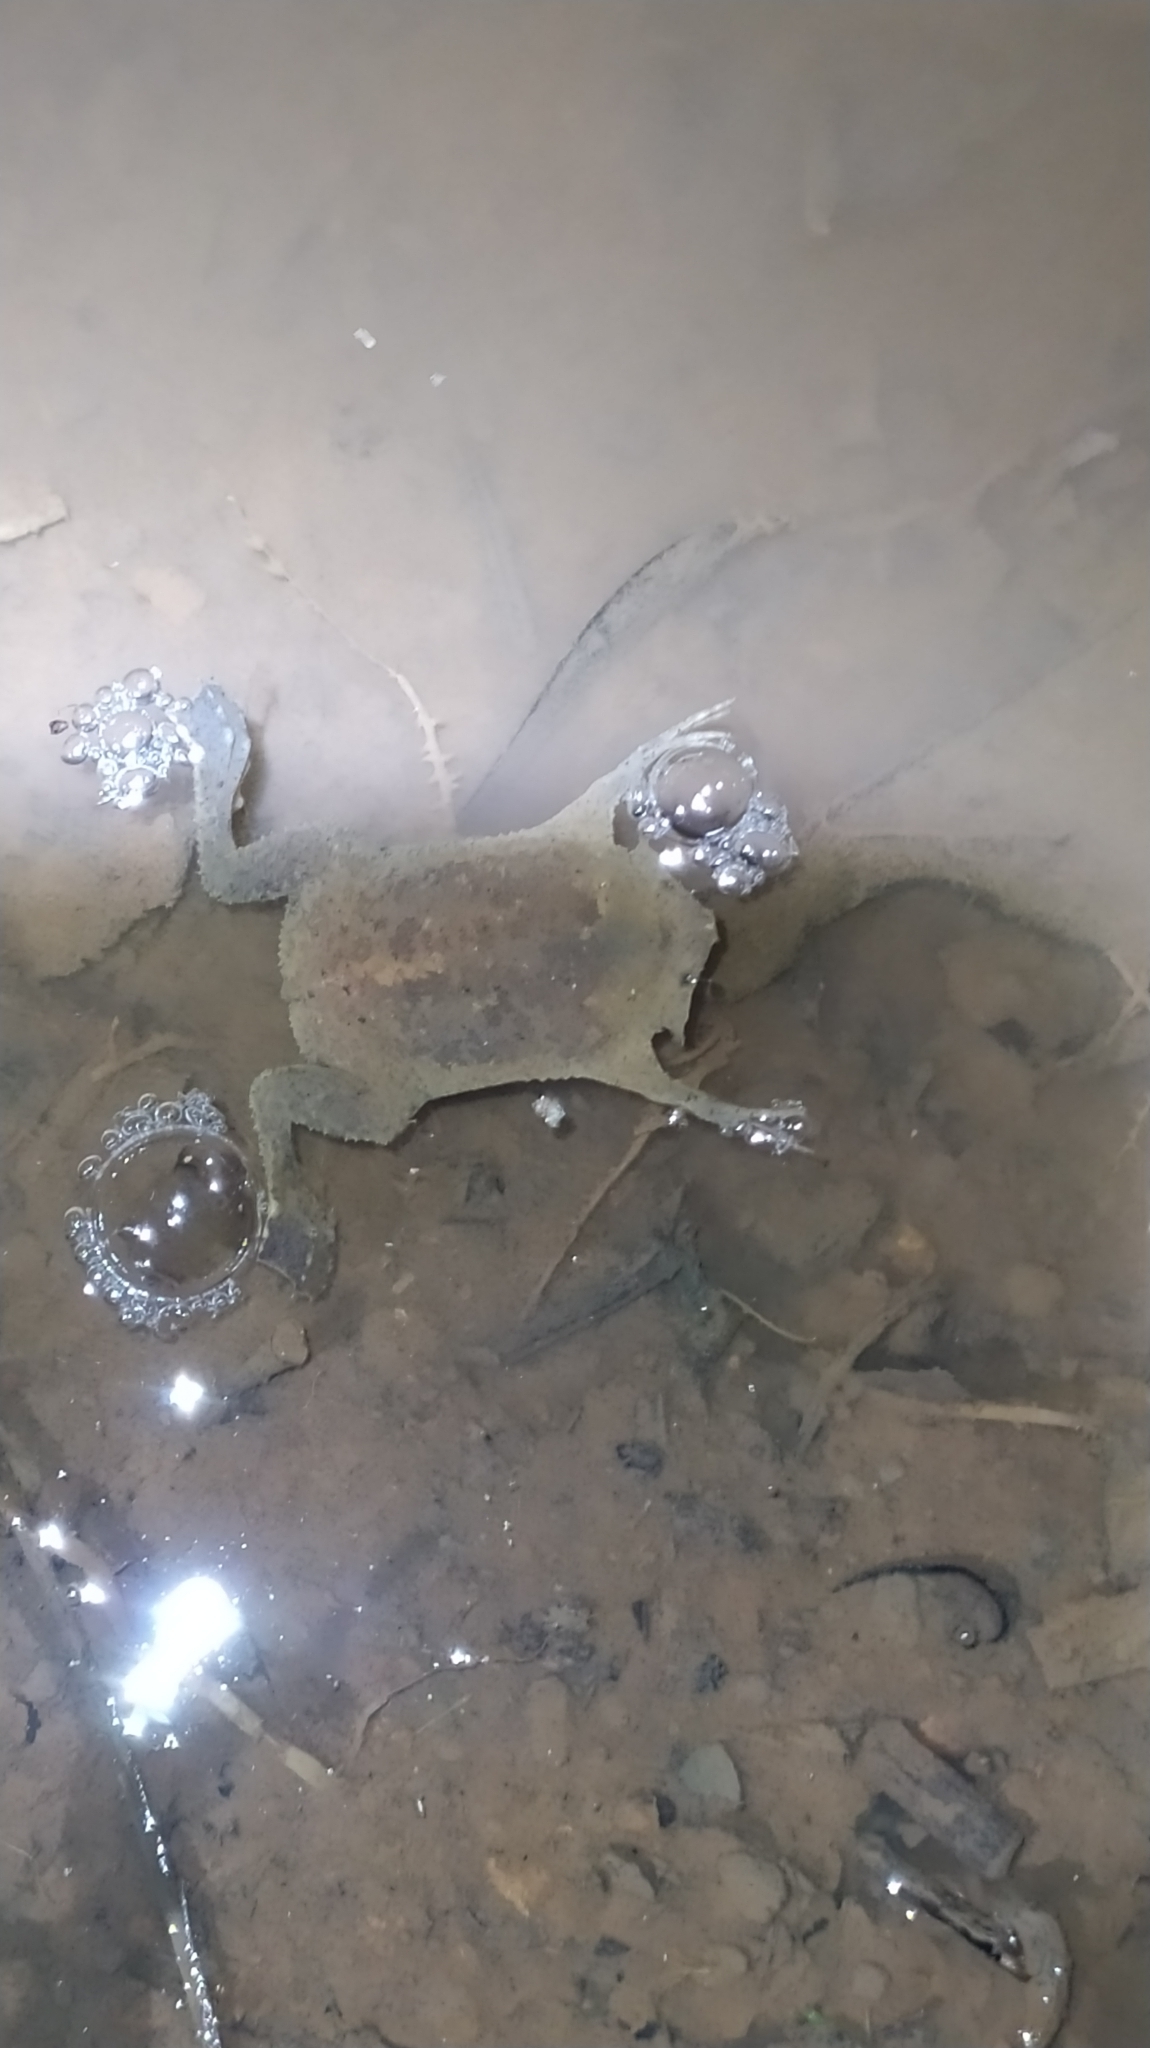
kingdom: Animalia
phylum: Chordata
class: Amphibia
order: Anura
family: Pipidae
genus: Pipa
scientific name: Pipa pipa
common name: Surinam toad
